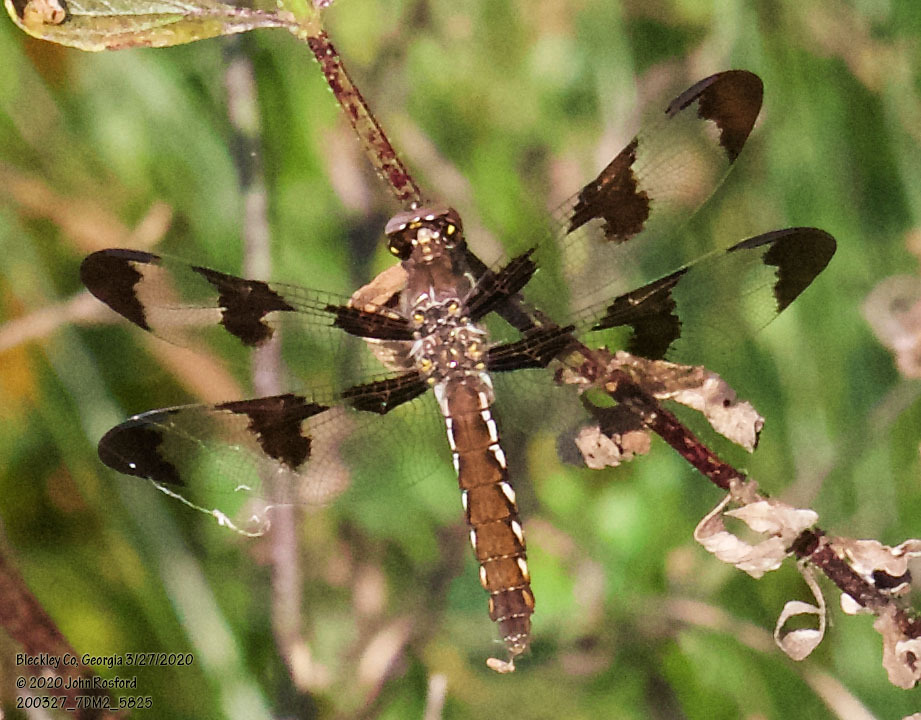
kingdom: Animalia
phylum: Arthropoda
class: Insecta
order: Odonata
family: Libellulidae
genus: Plathemis
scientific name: Plathemis lydia
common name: Common whitetail
